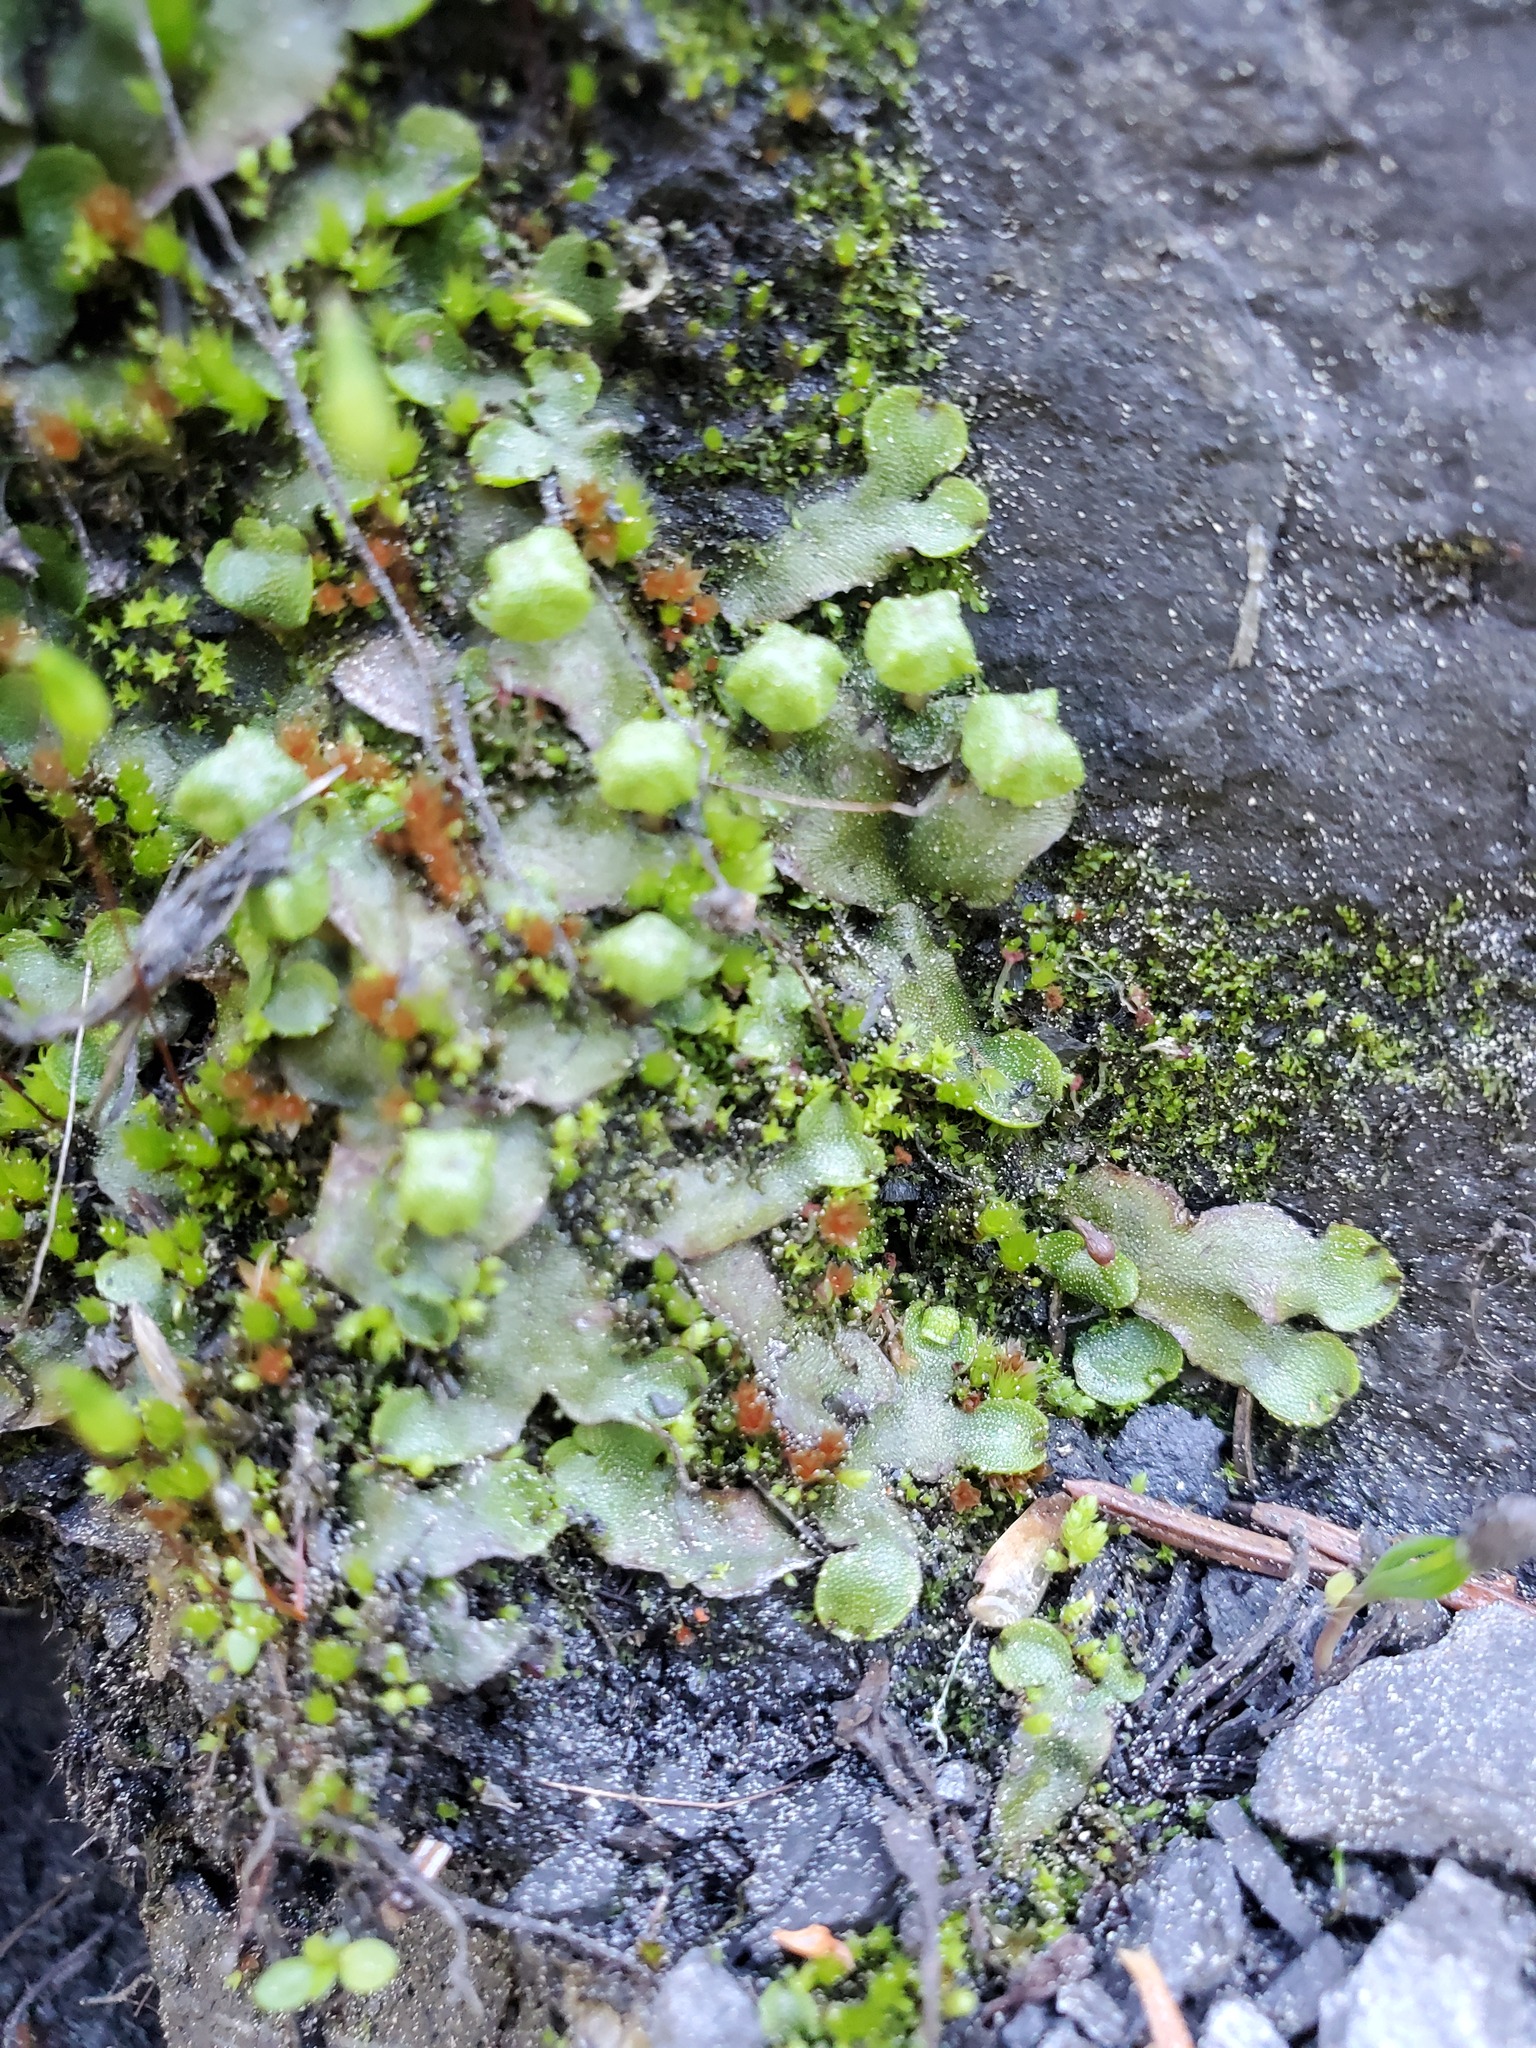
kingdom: Plantae
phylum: Marchantiophyta
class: Marchantiopsida
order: Marchantiales
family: Marchantiaceae
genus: Marchantia
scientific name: Marchantia quadrata
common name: Narrow mushroom-headed liverwort
